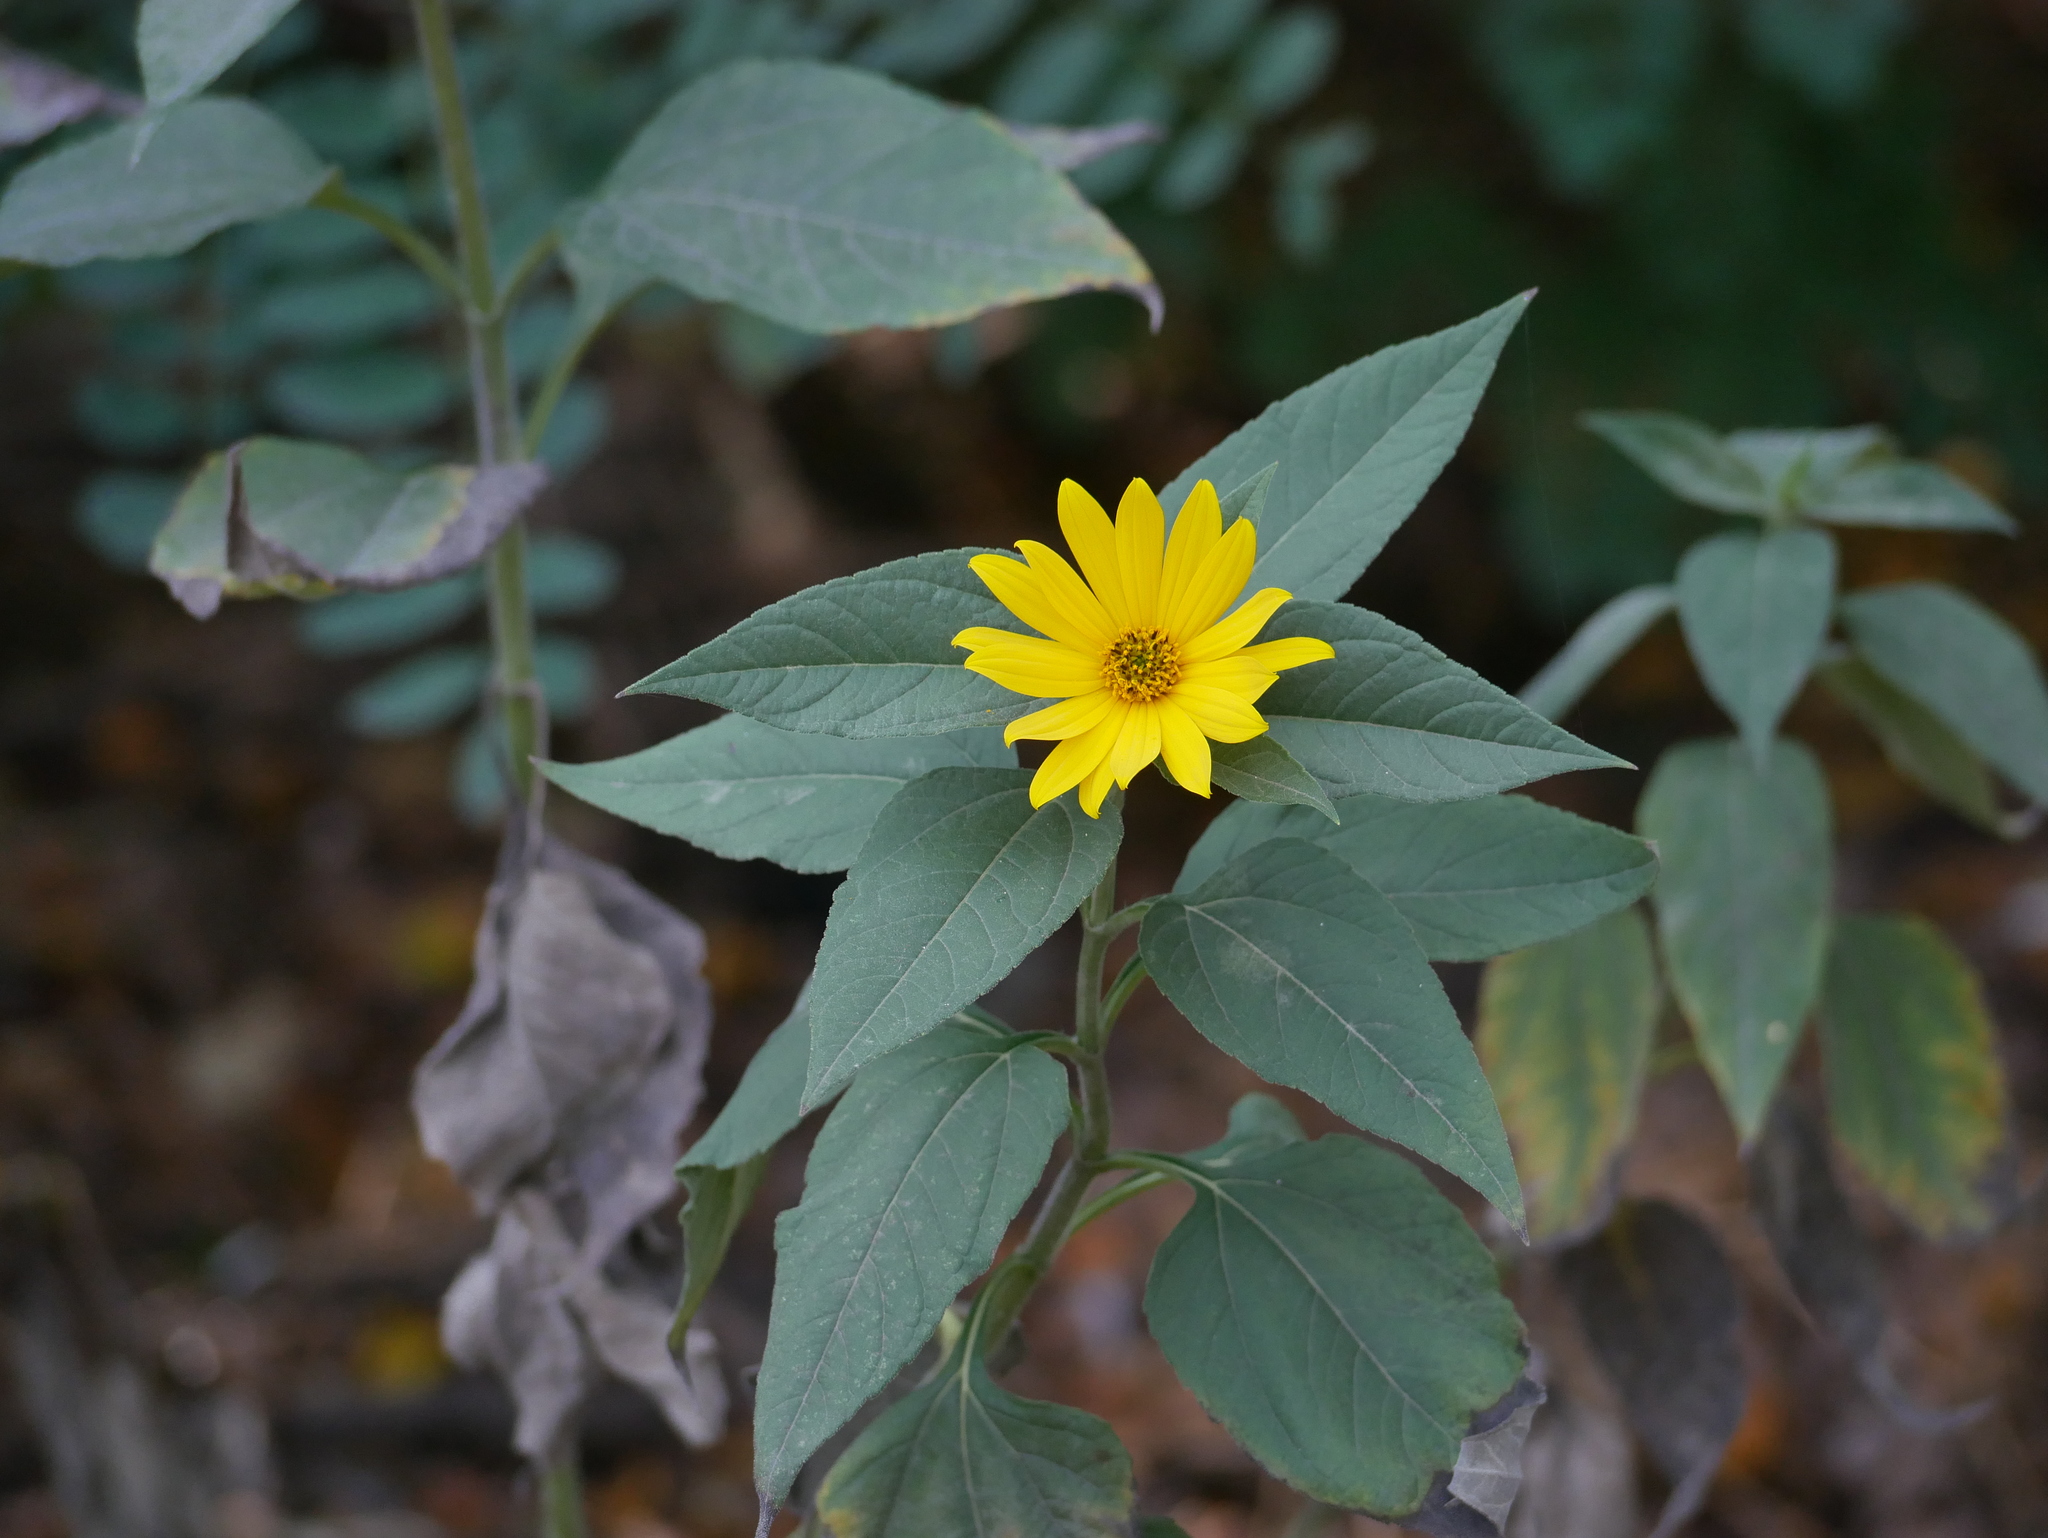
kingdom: Plantae
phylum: Tracheophyta
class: Magnoliopsida
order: Asterales
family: Asteraceae
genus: Helianthus
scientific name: Helianthus tuberosus
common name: Jerusalem artichoke
